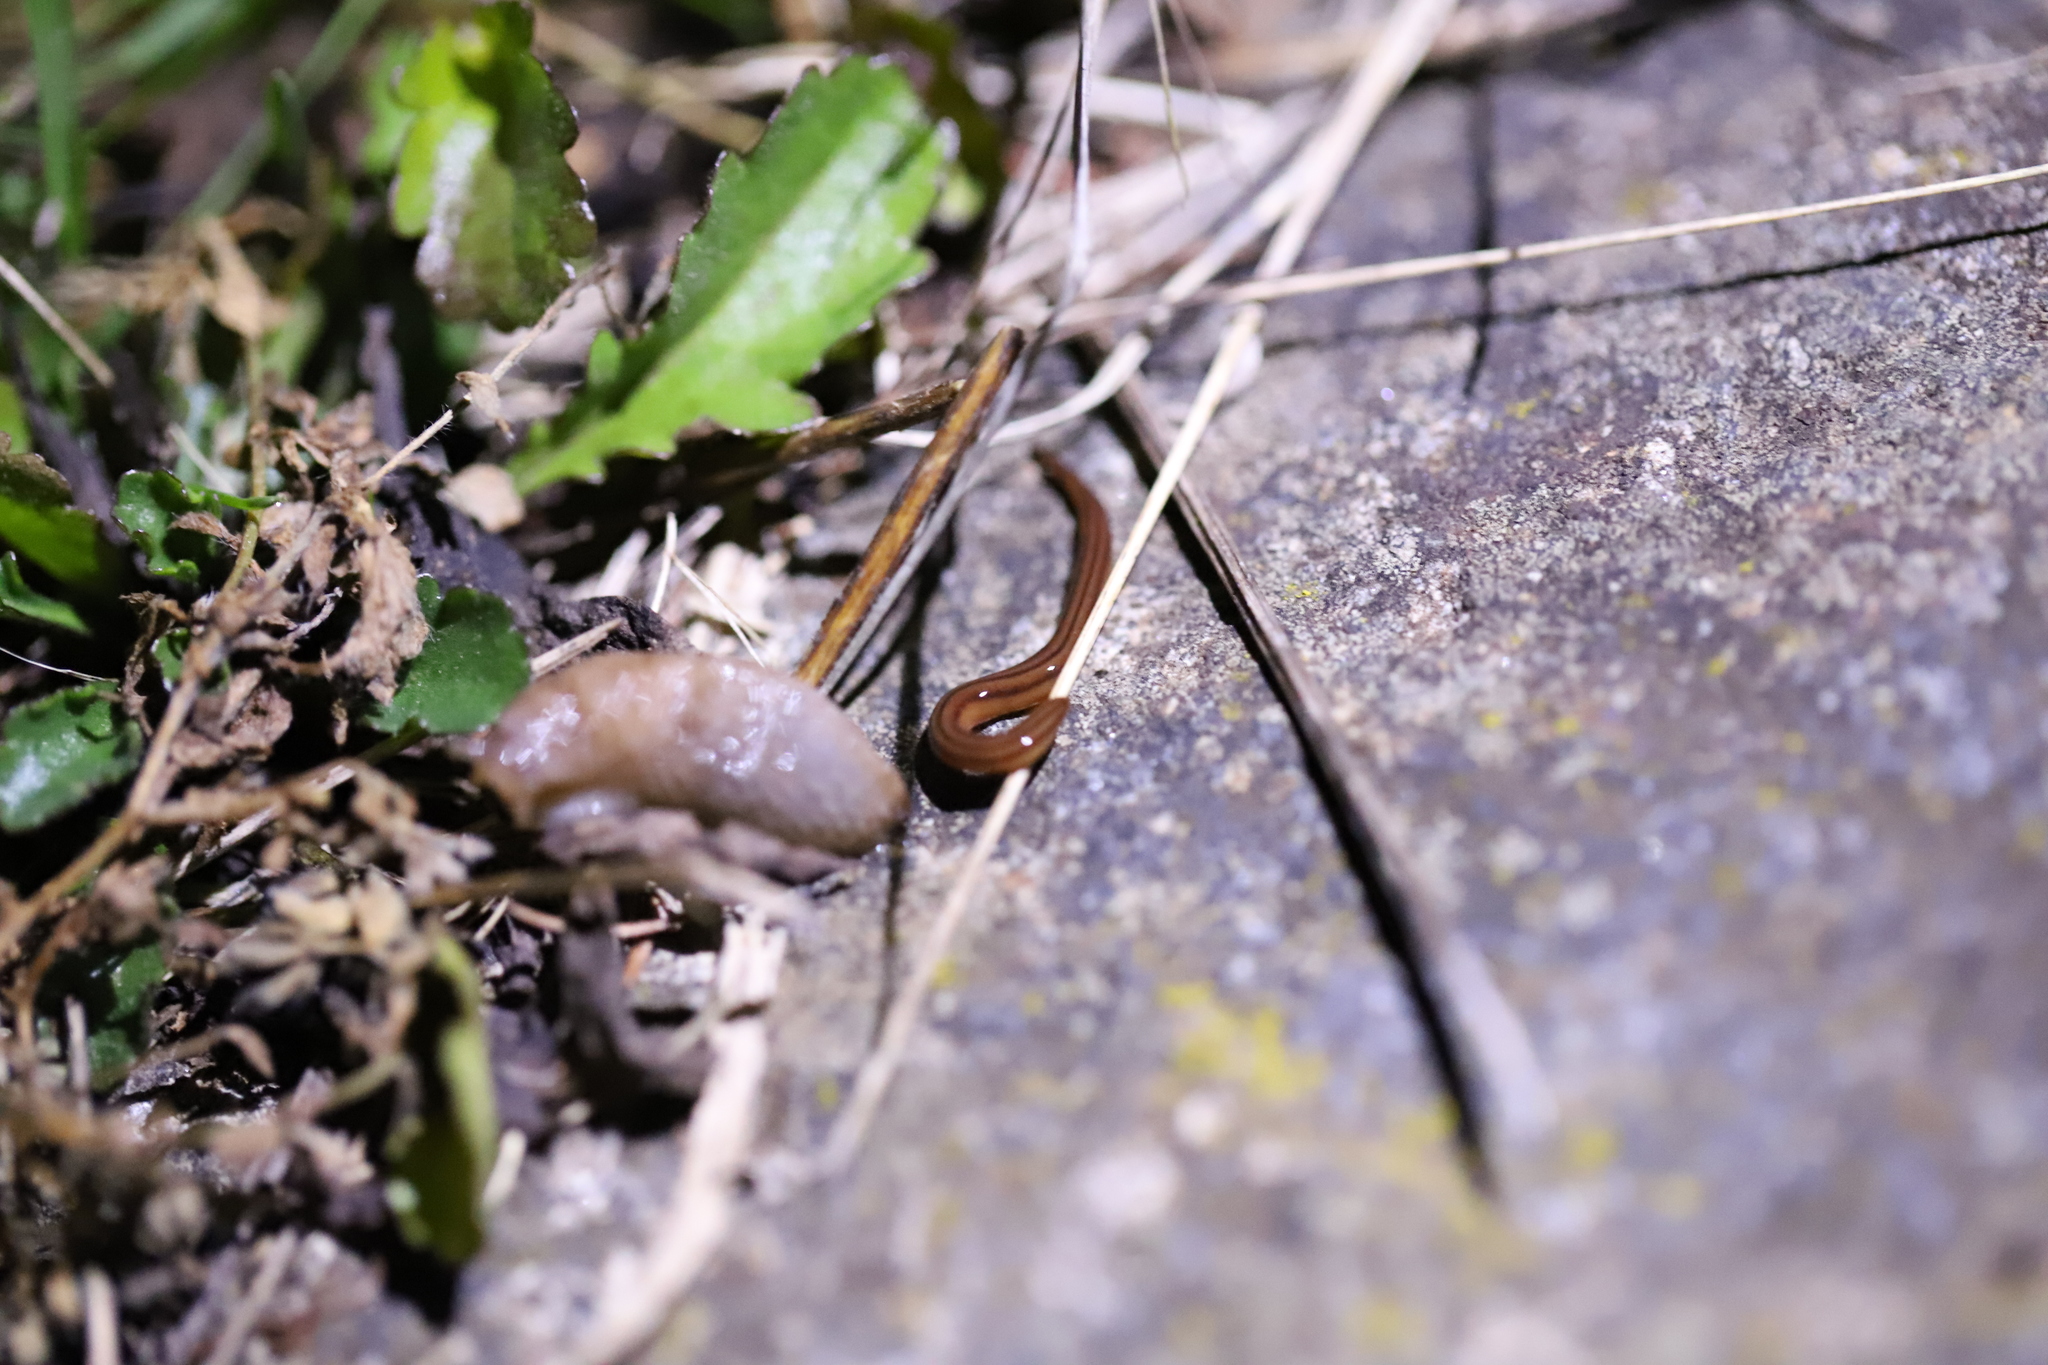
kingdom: Animalia
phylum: Platyhelminthes
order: Tricladida
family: Geoplanidae
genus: Anzoplana
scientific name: Anzoplana trilineata
